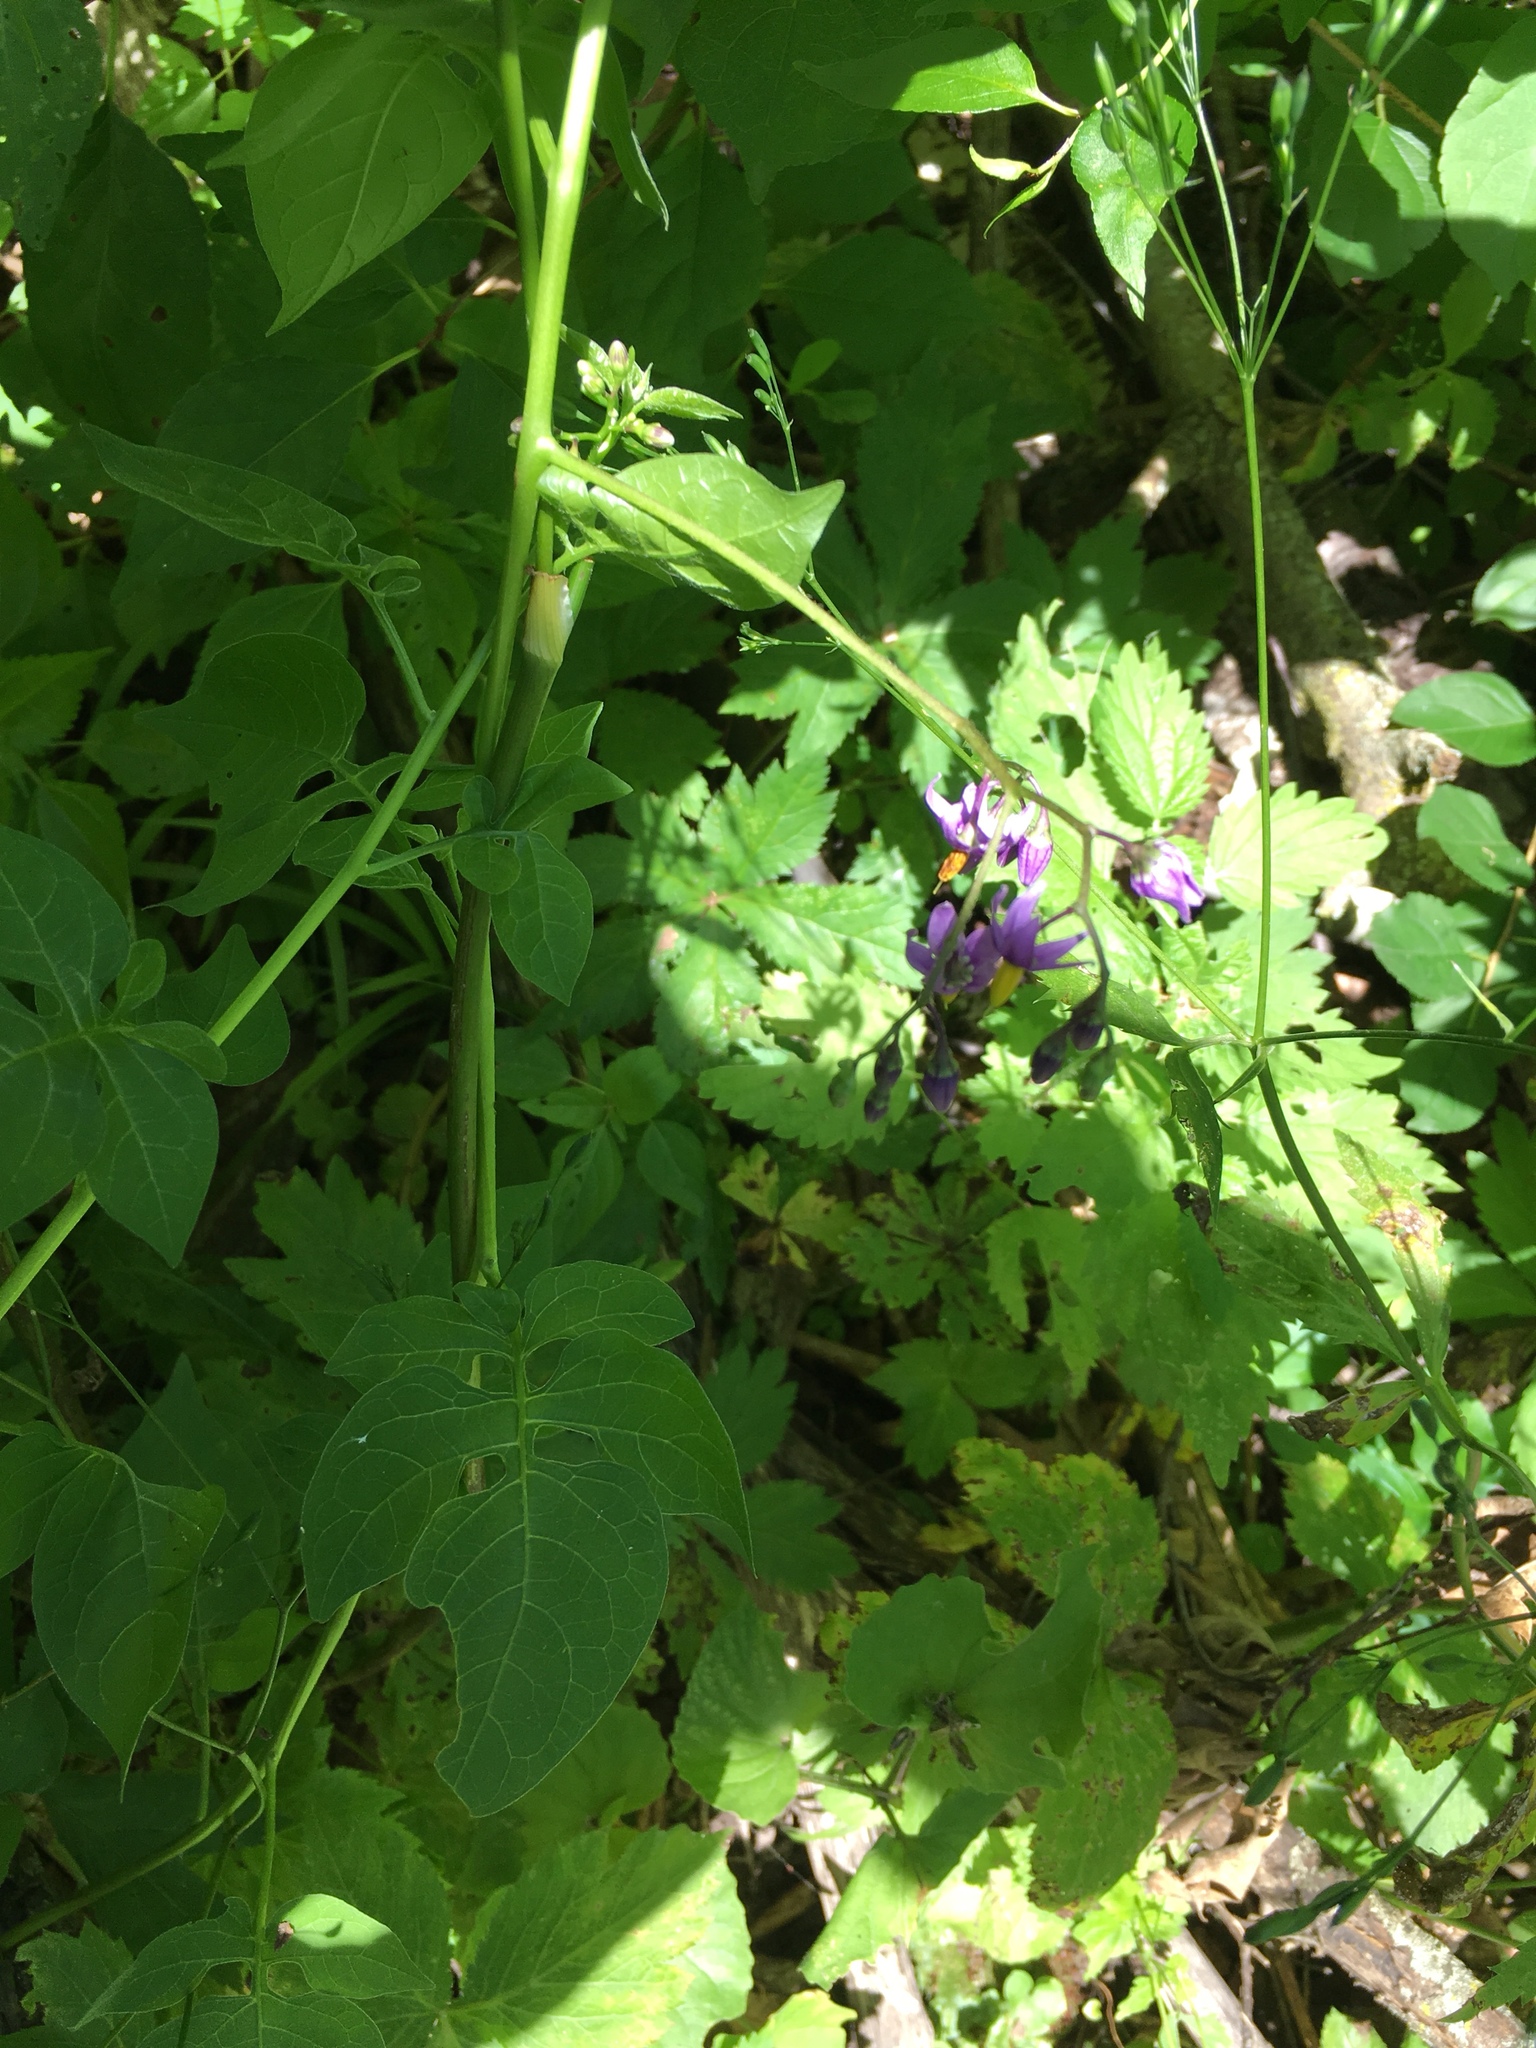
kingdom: Plantae
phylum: Tracheophyta
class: Magnoliopsida
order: Solanales
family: Solanaceae
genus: Solanum
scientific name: Solanum dulcamara
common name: Climbing nightshade
